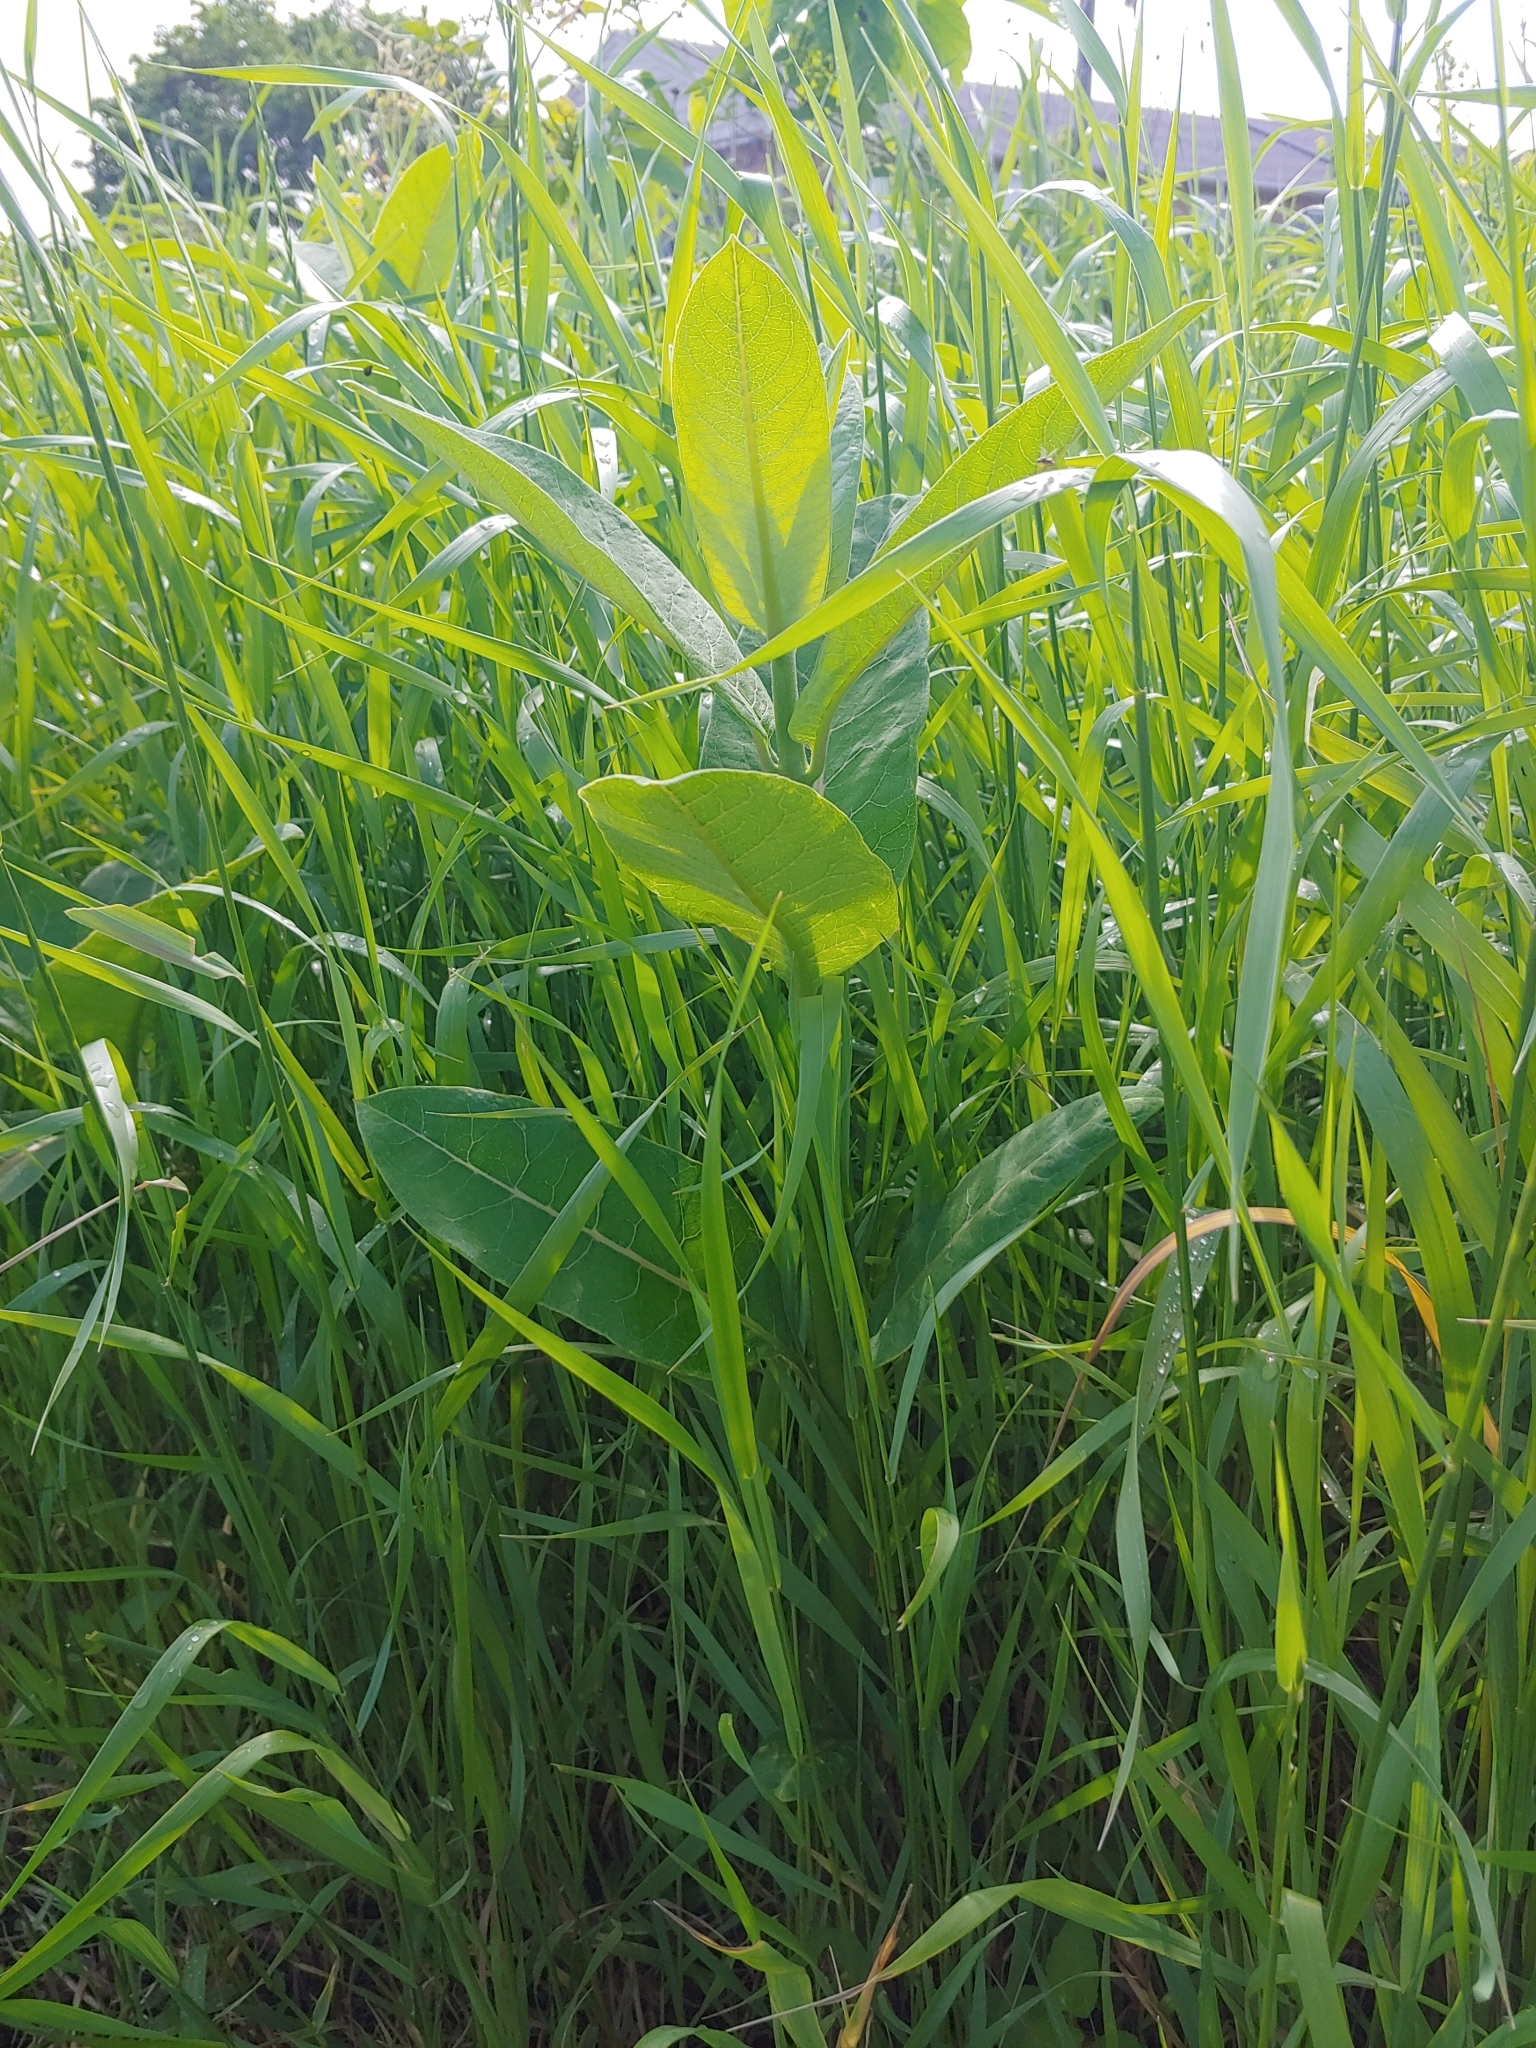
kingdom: Plantae
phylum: Tracheophyta
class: Magnoliopsida
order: Gentianales
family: Apocynaceae
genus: Apocynum
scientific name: Apocynum cannabinum
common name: Hemp dogbane
